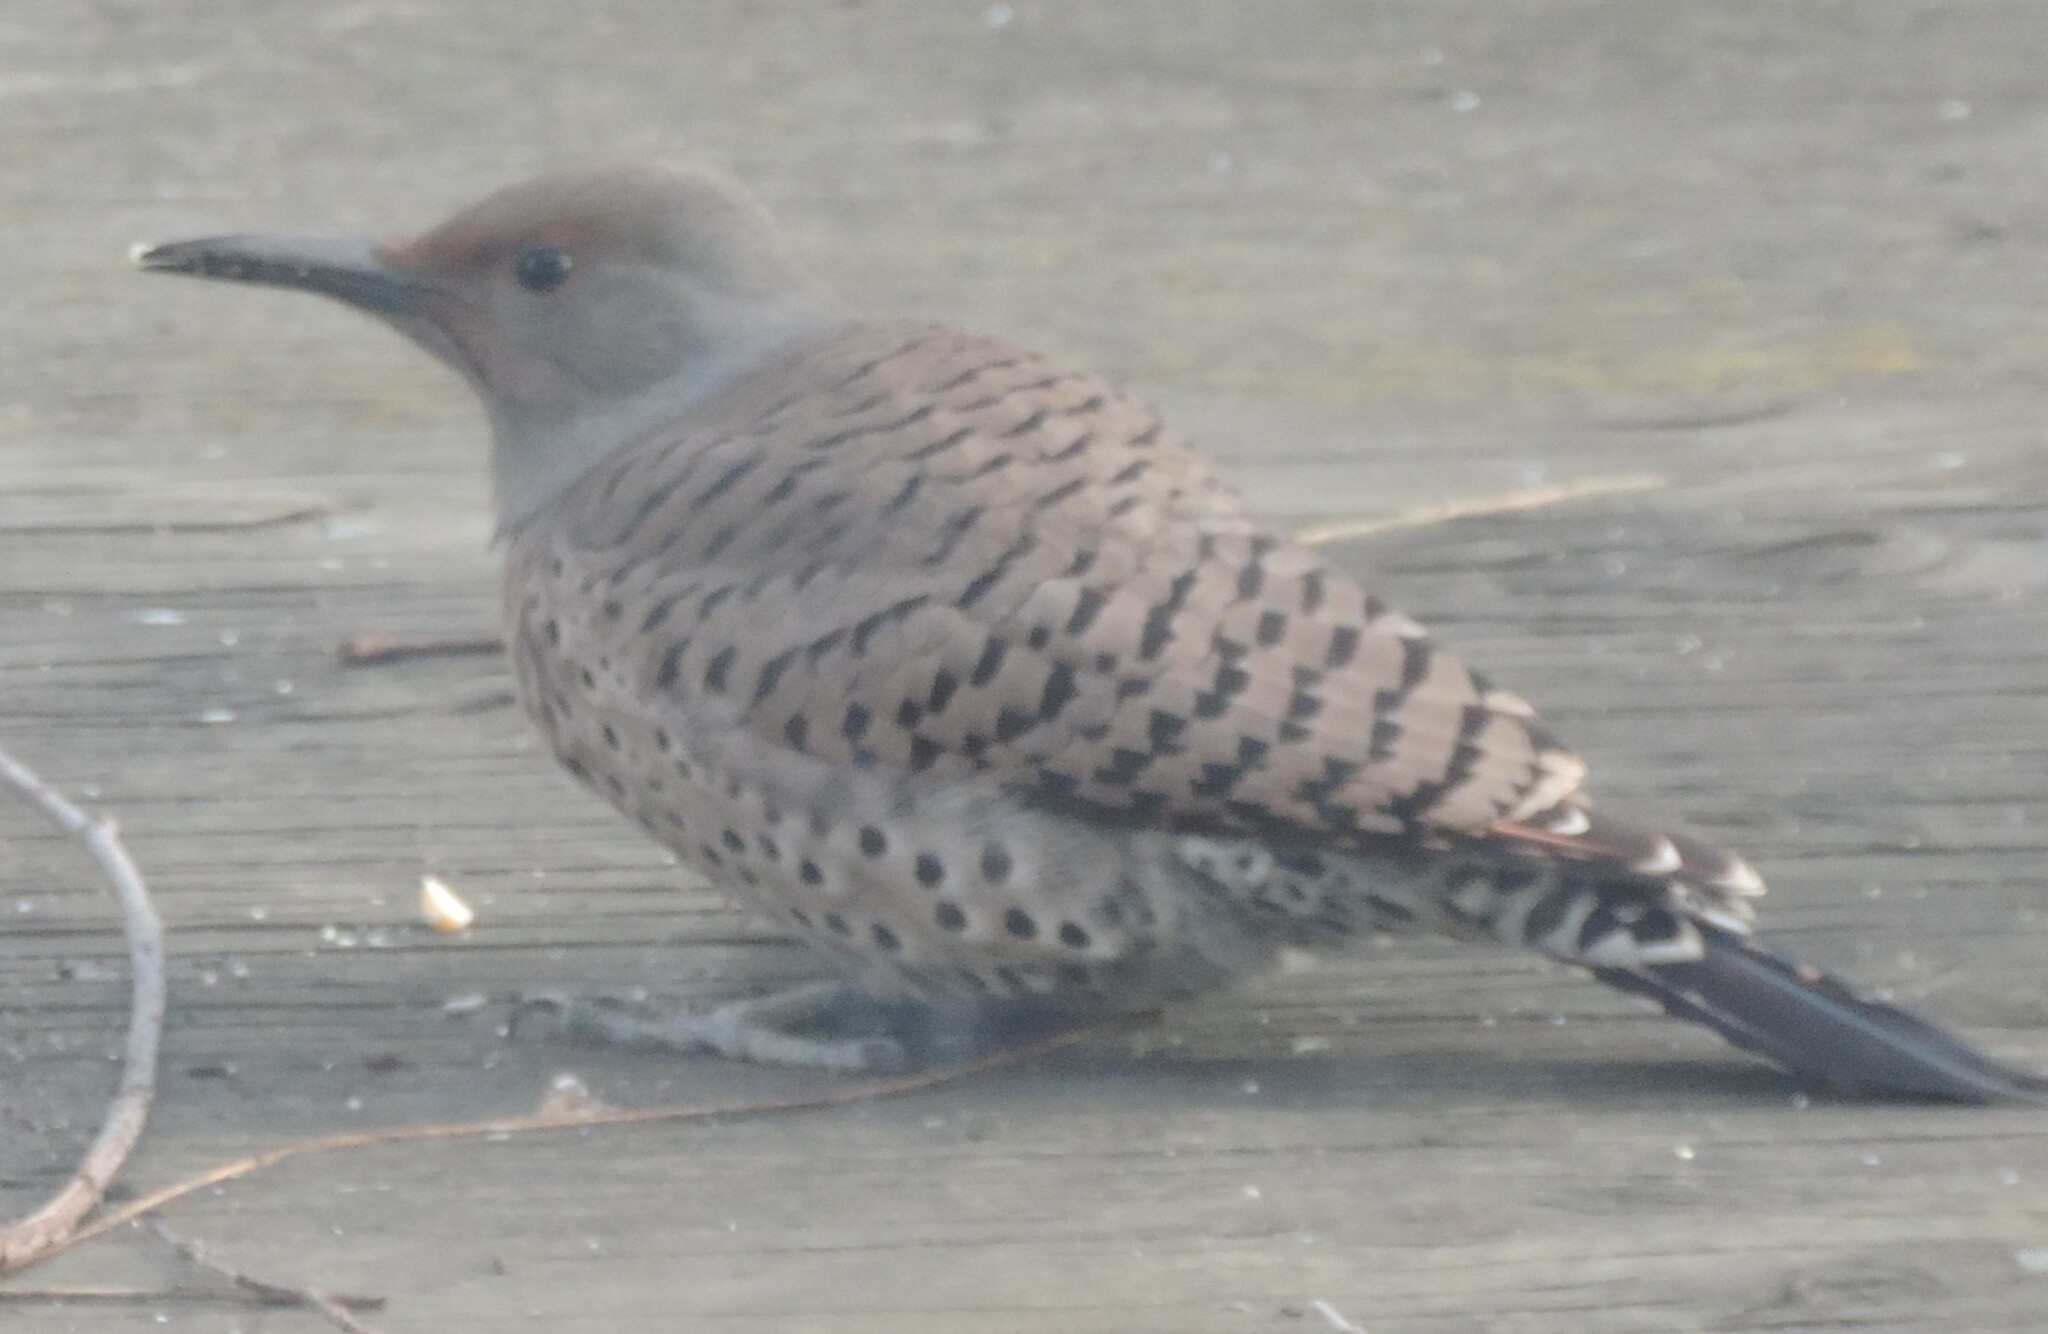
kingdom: Animalia
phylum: Chordata
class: Aves
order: Piciformes
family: Picidae
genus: Colaptes
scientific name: Colaptes auratus
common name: Northern flicker
